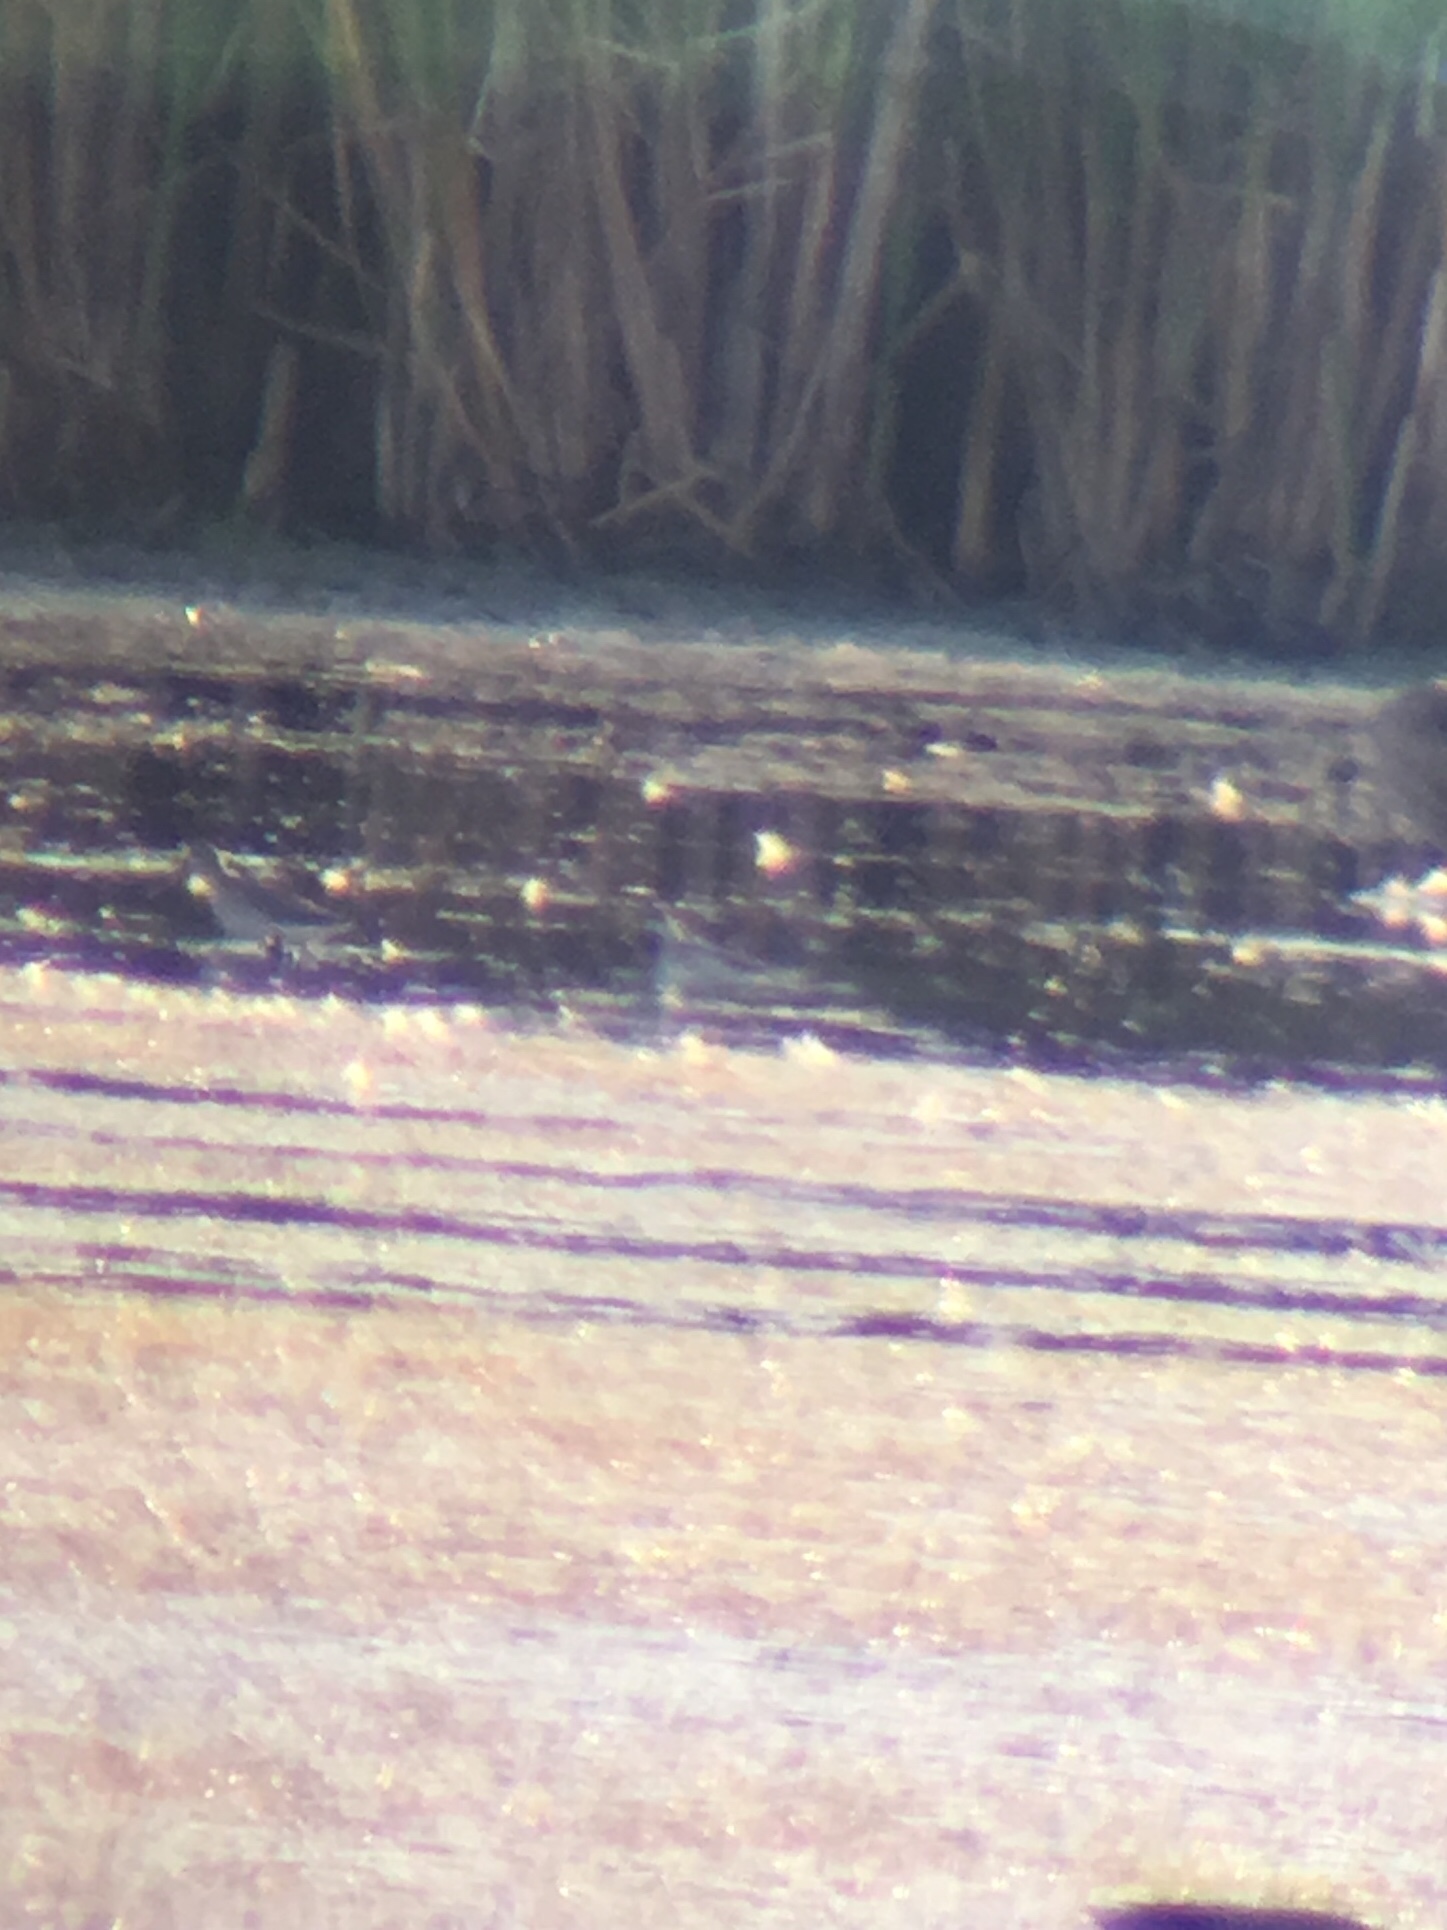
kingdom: Animalia
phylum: Chordata
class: Aves
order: Charadriiformes
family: Scolopacidae
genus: Phalaropus
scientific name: Phalaropus lobatus
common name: Red-necked phalarope
